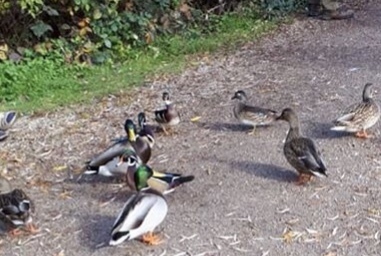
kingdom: Animalia
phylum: Chordata
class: Aves
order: Anseriformes
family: Anatidae
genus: Aix
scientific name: Aix sponsa
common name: Wood duck
